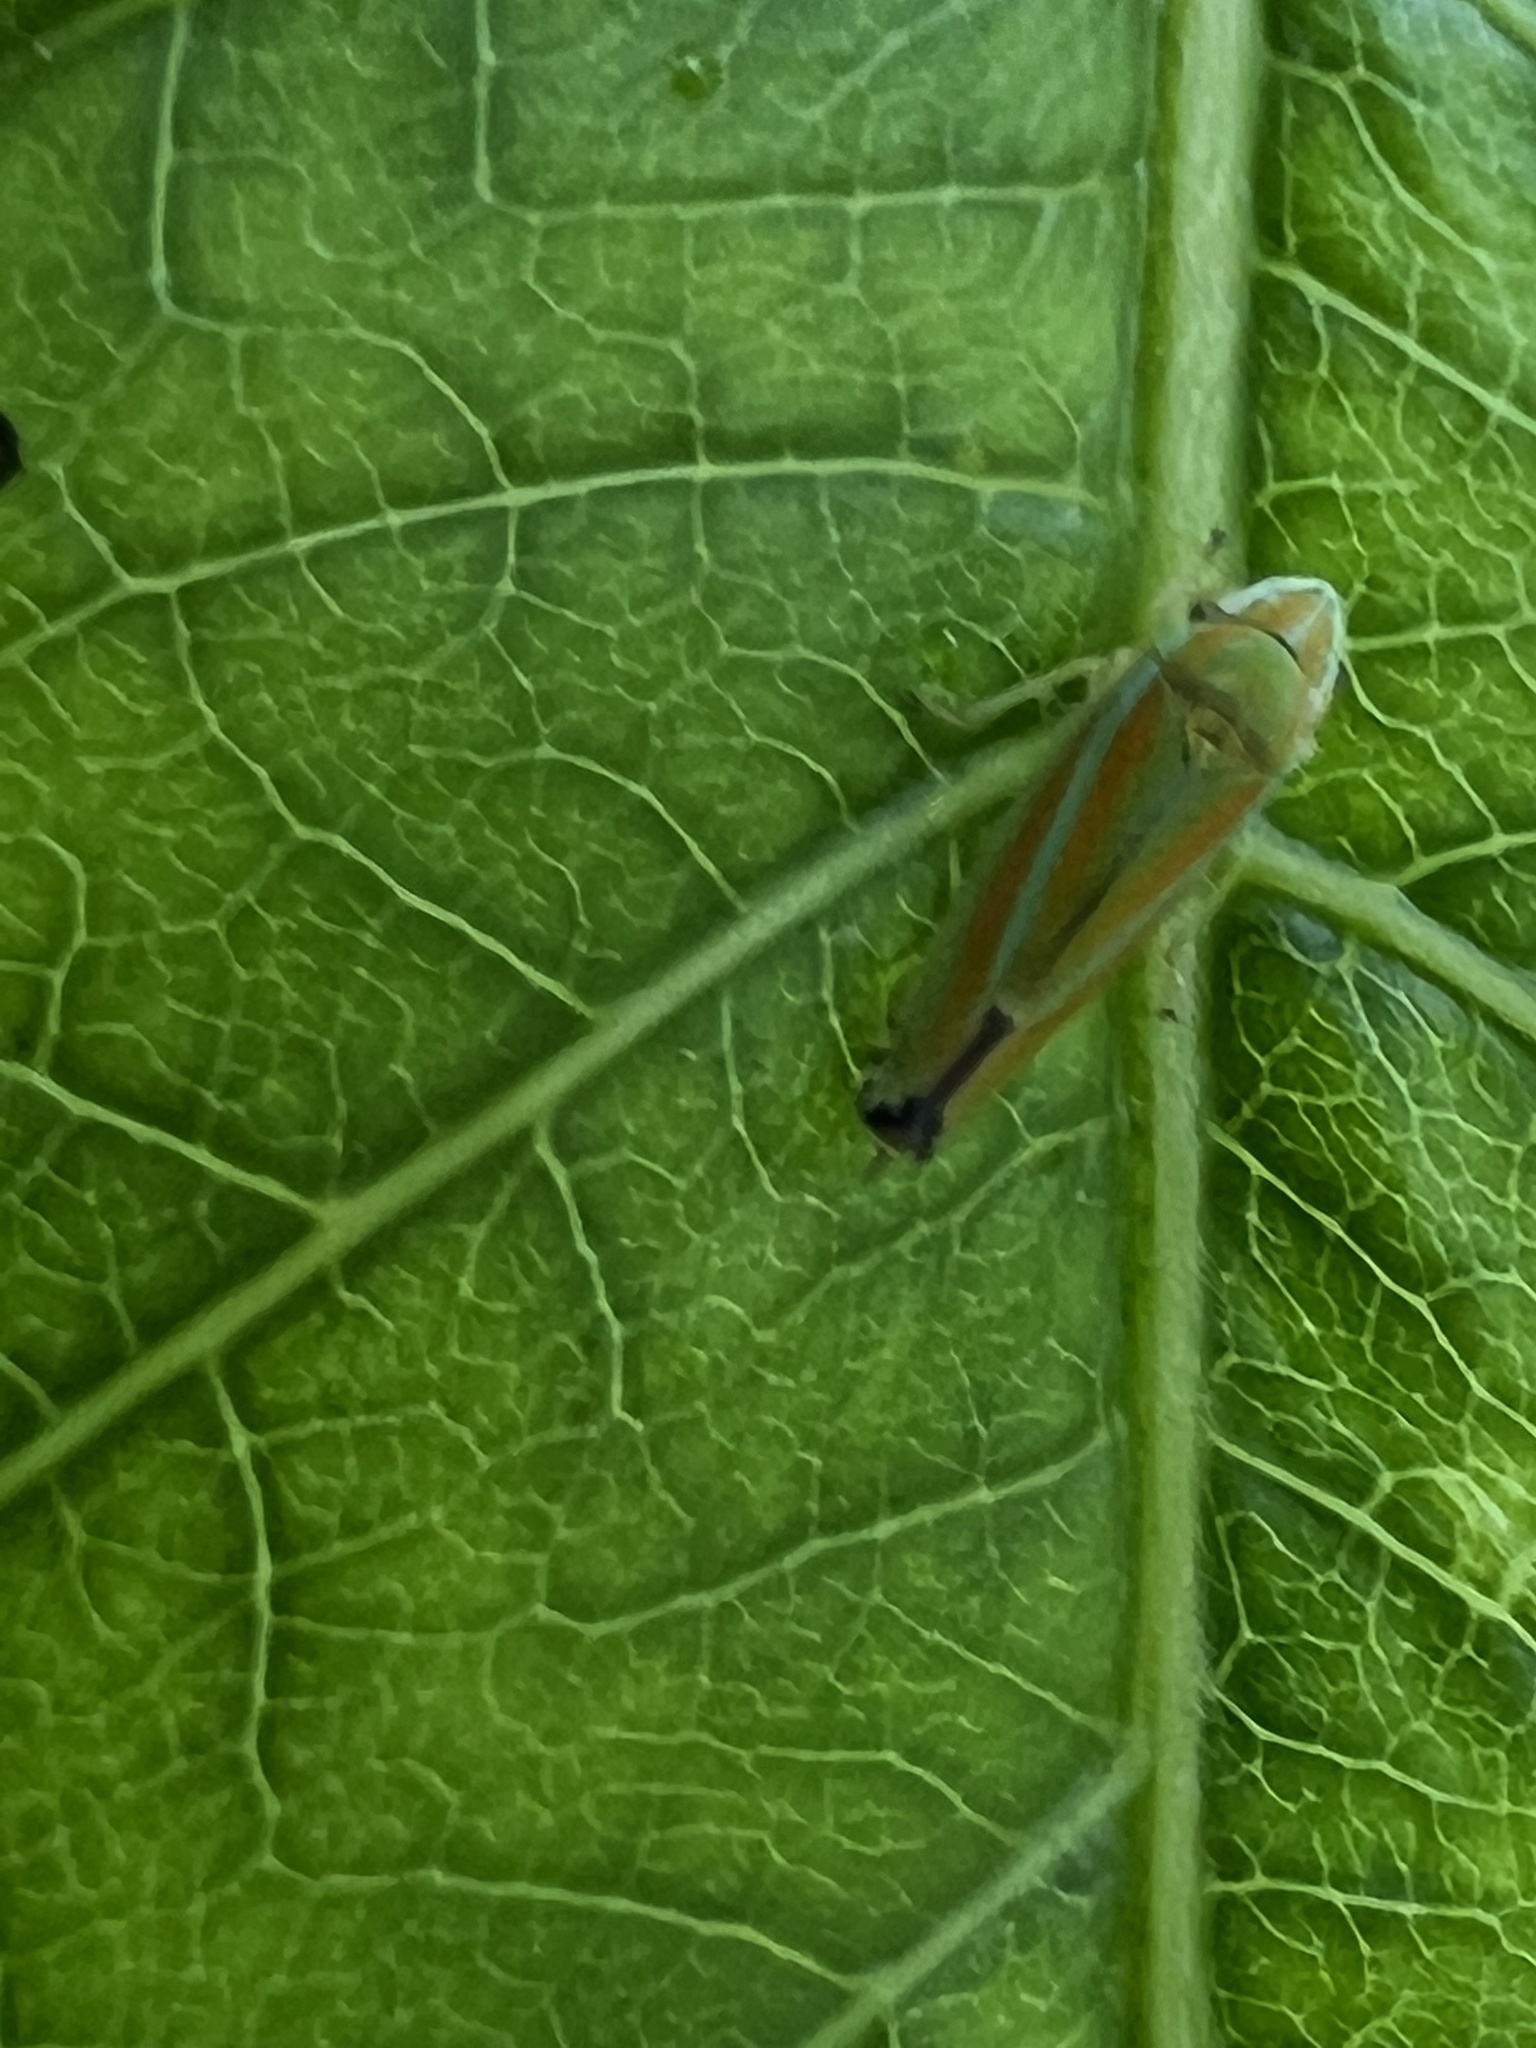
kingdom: Animalia
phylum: Arthropoda
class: Insecta
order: Hemiptera
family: Cicadellidae
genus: Graphocephala
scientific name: Graphocephala versuta
